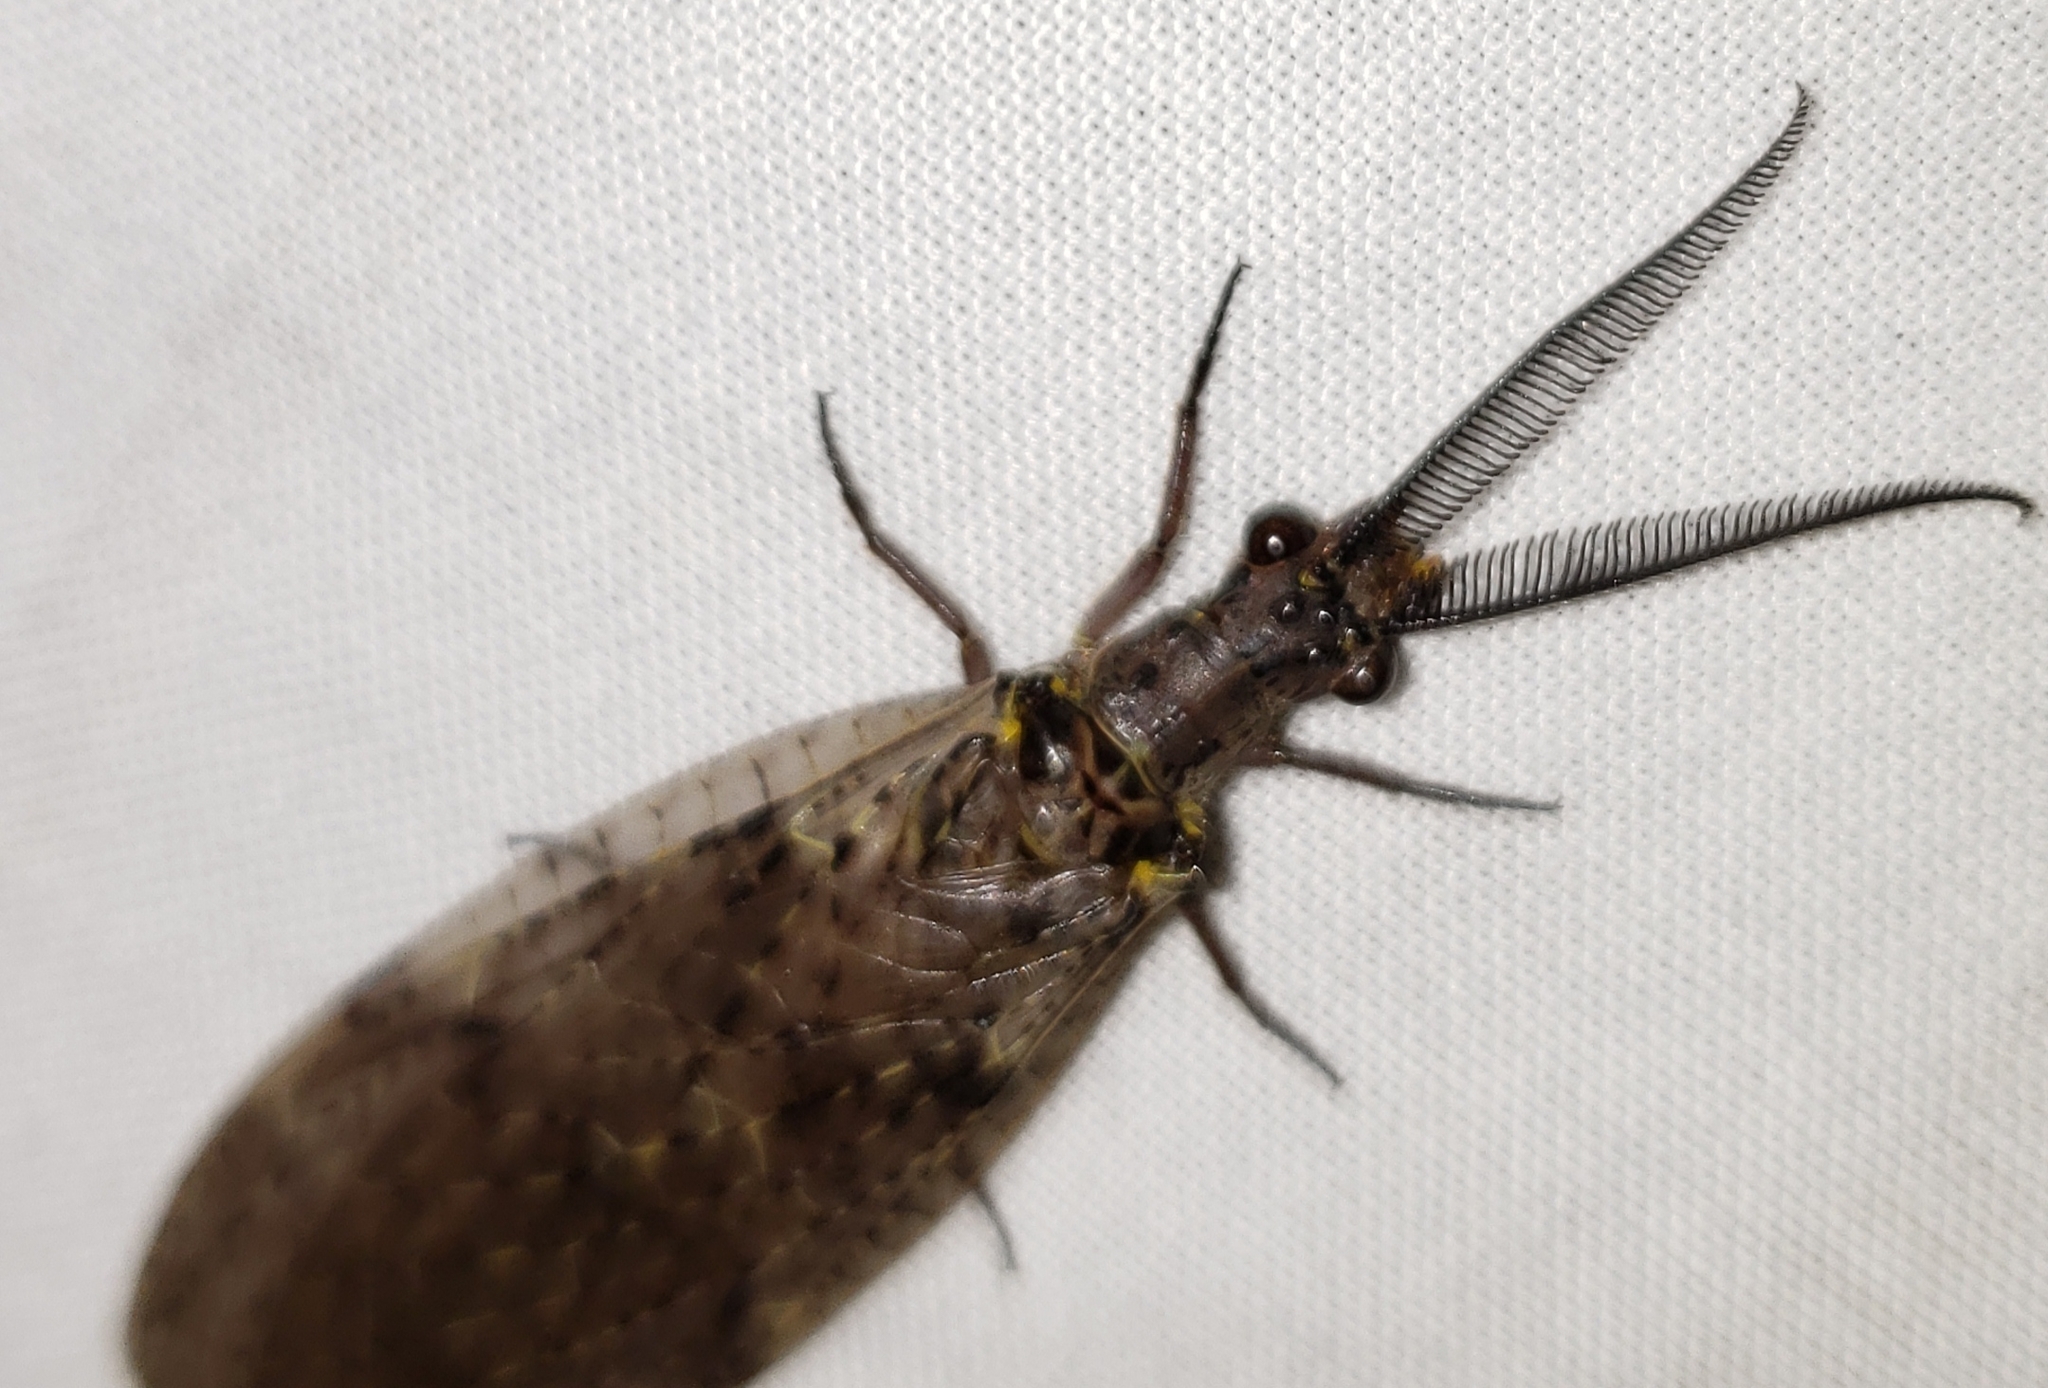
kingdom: Animalia
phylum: Arthropoda
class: Insecta
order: Megaloptera
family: Corydalidae
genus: Chauliodes
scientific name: Chauliodes rastricornis
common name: Spring fishfly
